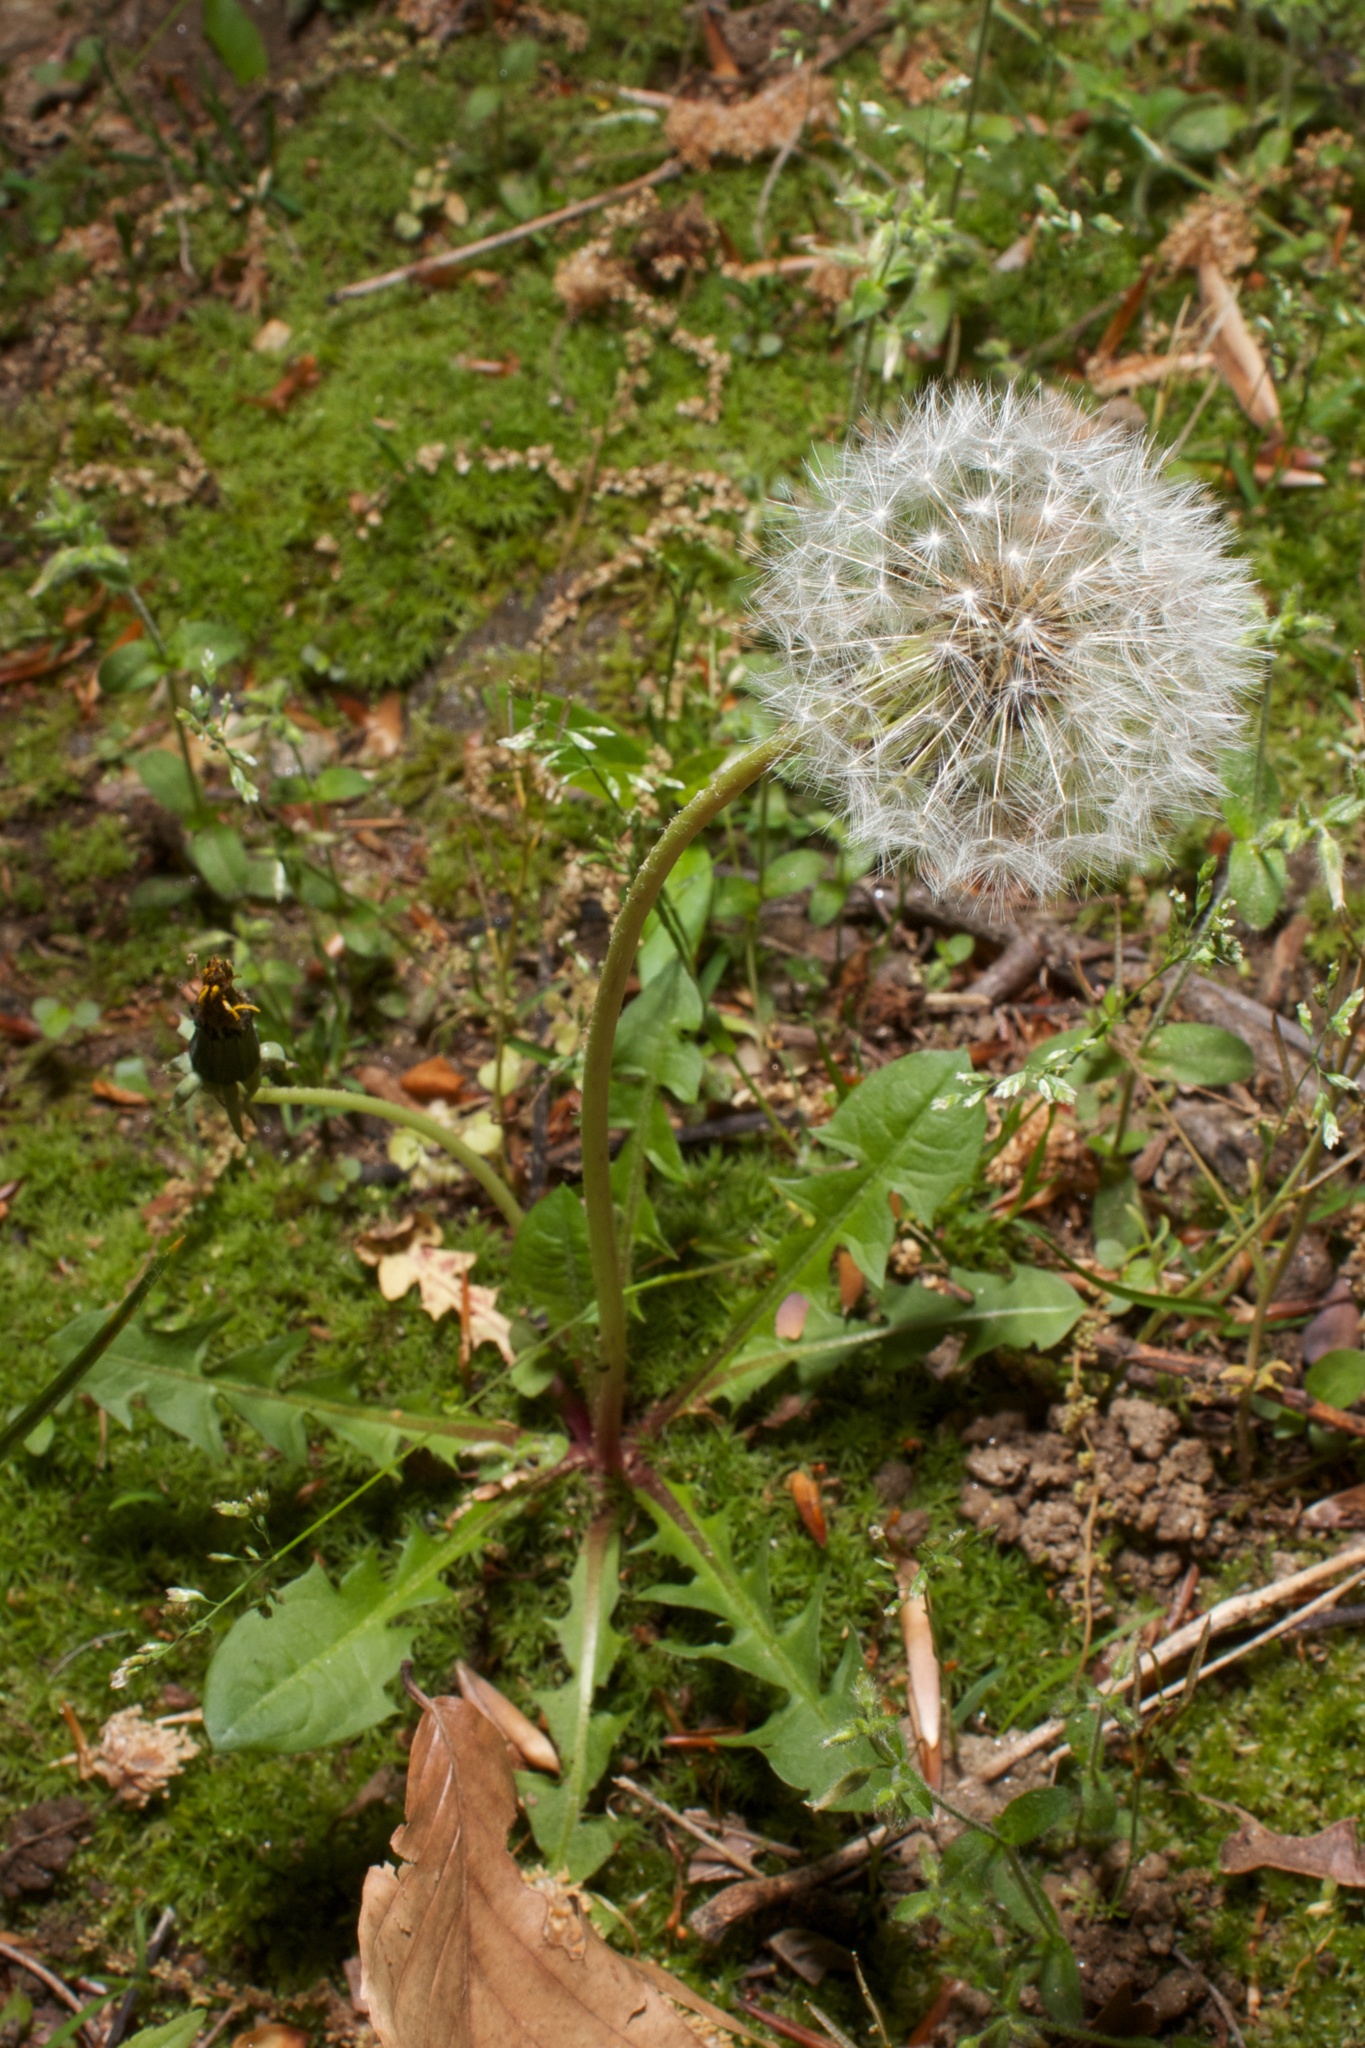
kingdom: Plantae
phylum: Tracheophyta
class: Magnoliopsida
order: Asterales
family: Asteraceae
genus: Taraxacum
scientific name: Taraxacum officinale
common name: Common dandelion
